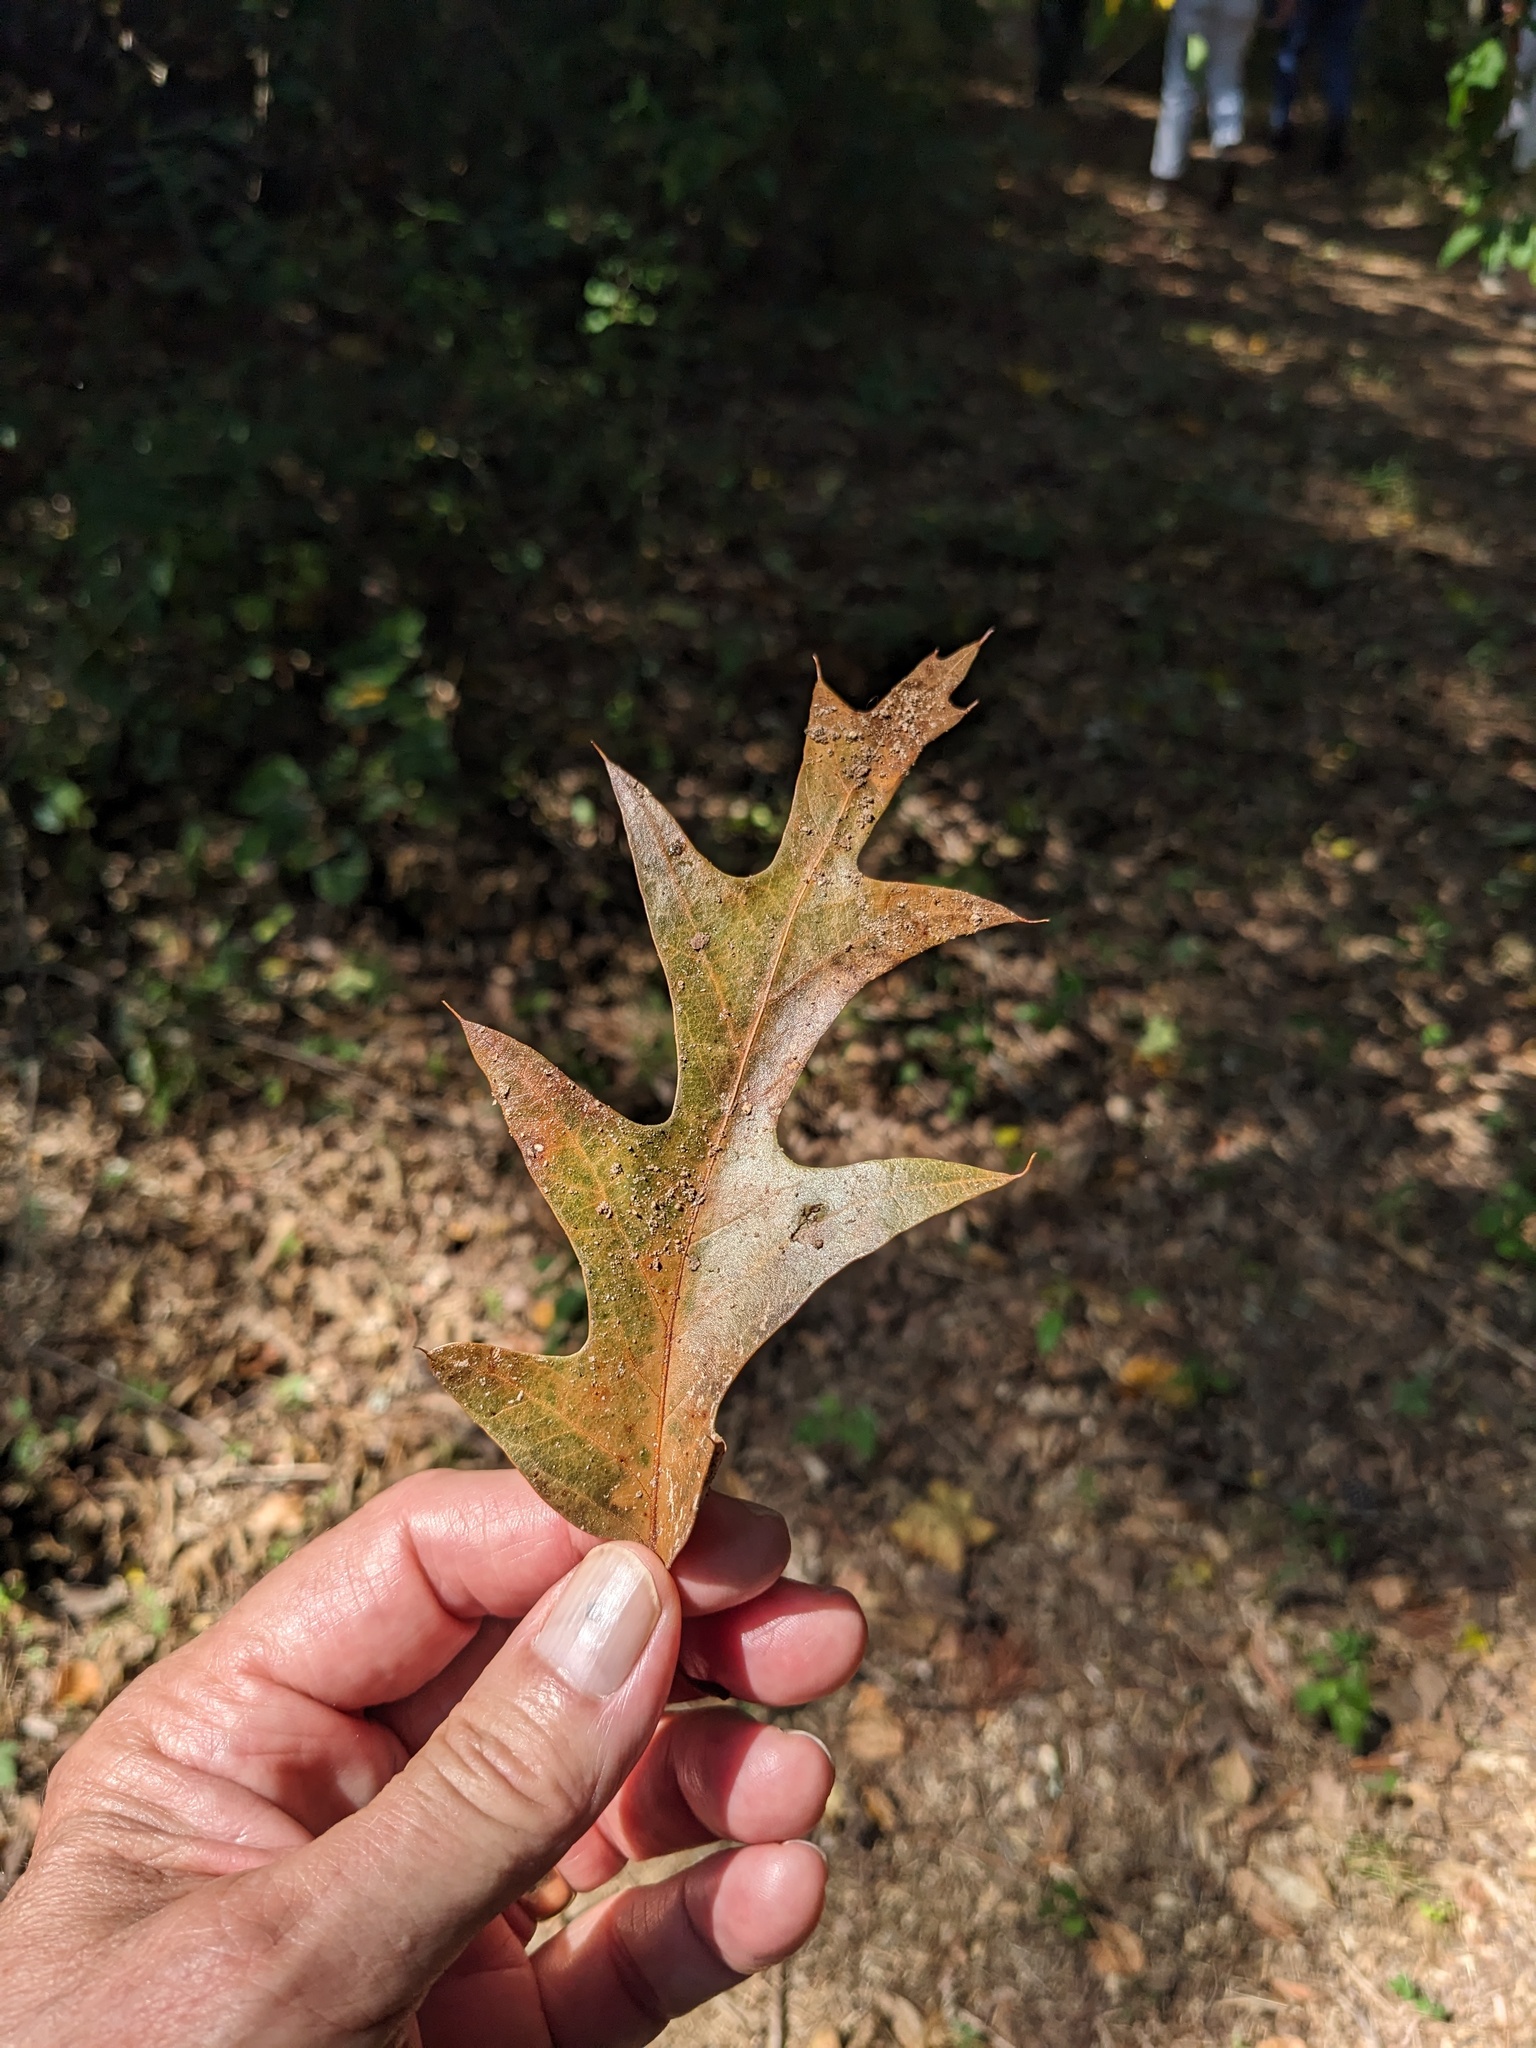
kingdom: Plantae
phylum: Tracheophyta
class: Magnoliopsida
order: Fagales
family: Fagaceae
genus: Quercus
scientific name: Quercus falcata
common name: Southern red oak
